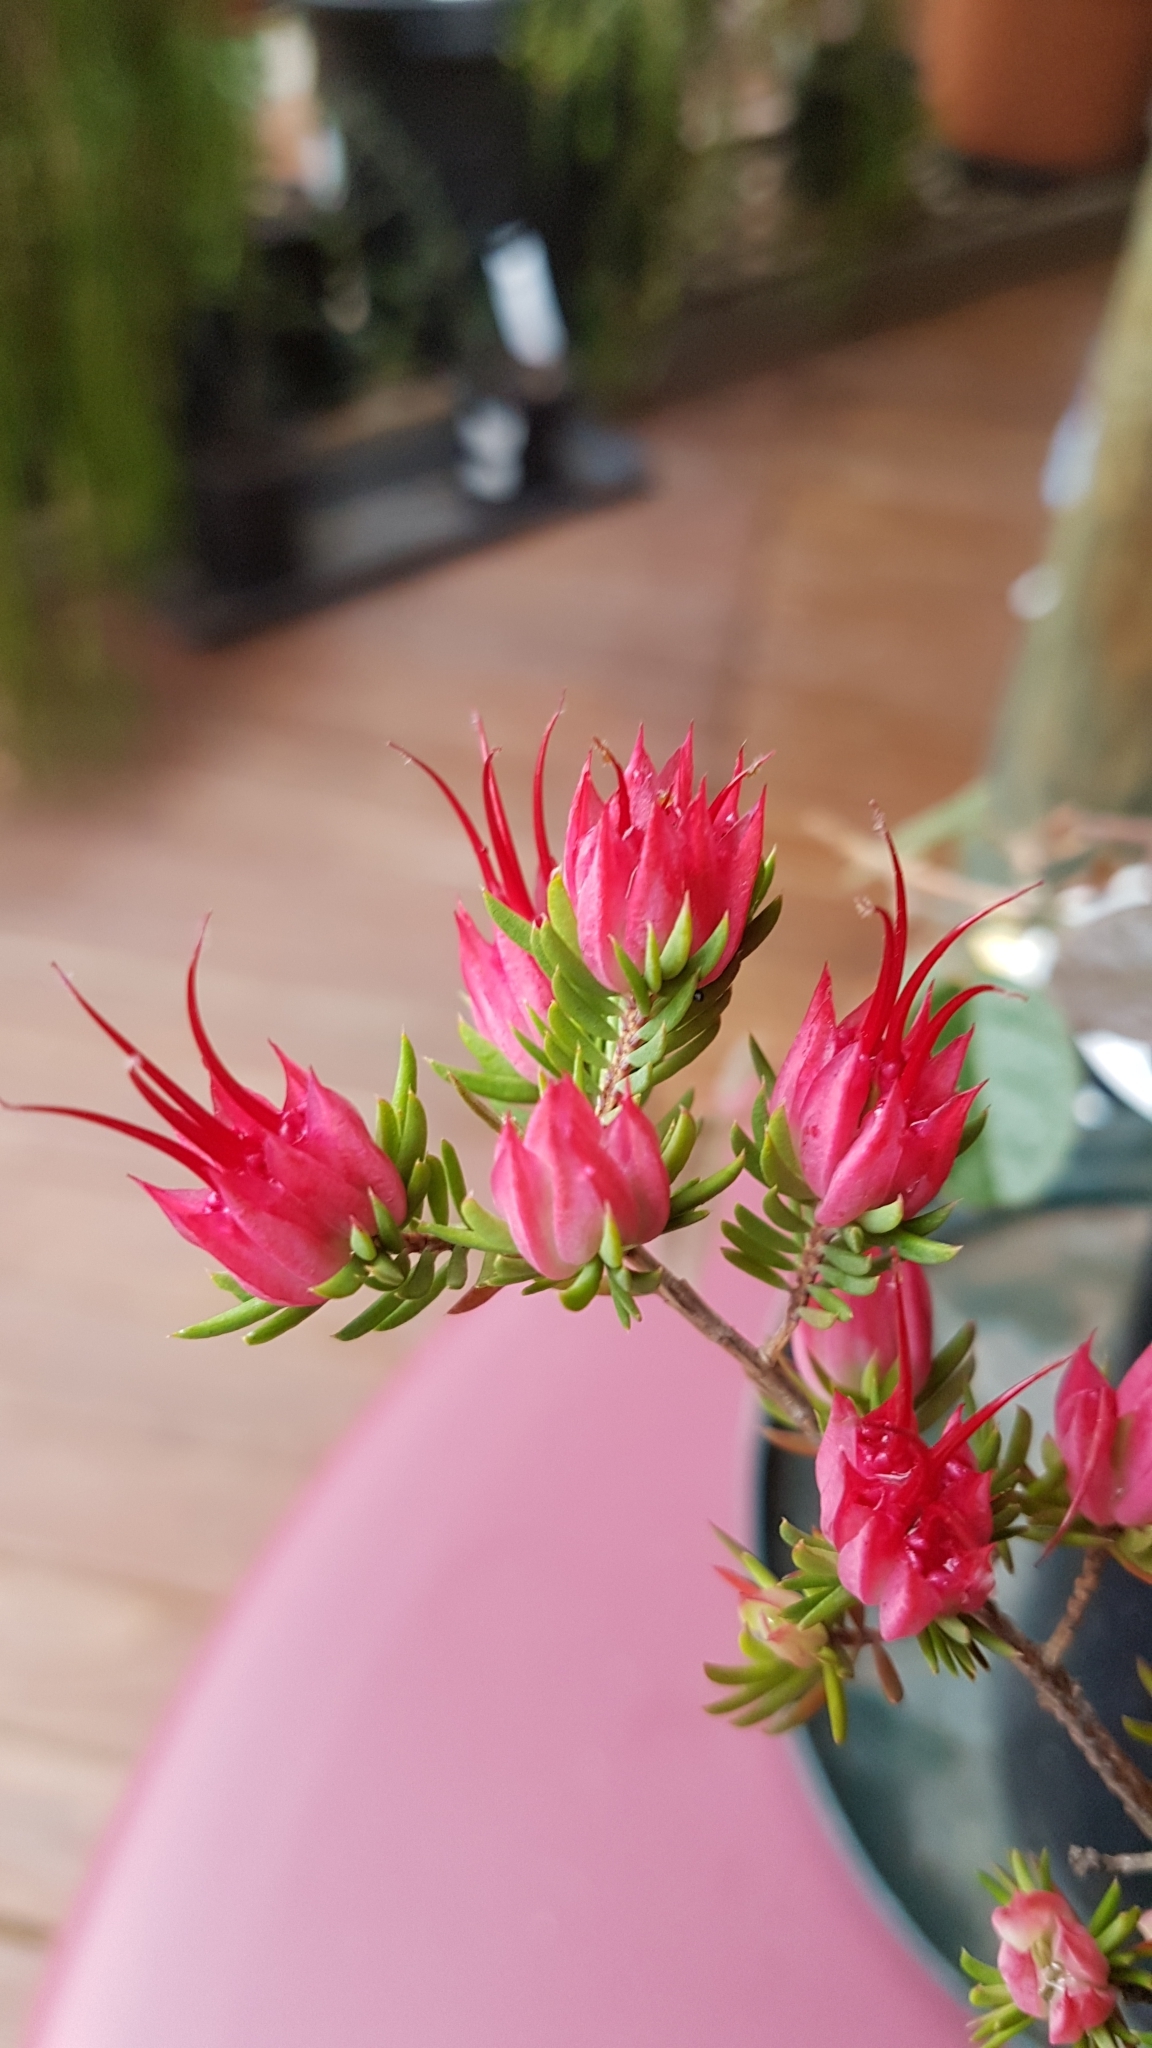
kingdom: Plantae
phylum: Tracheophyta
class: Magnoliopsida
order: Myrtales
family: Myrtaceae
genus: Darwinia
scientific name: Darwinia taxifolia
